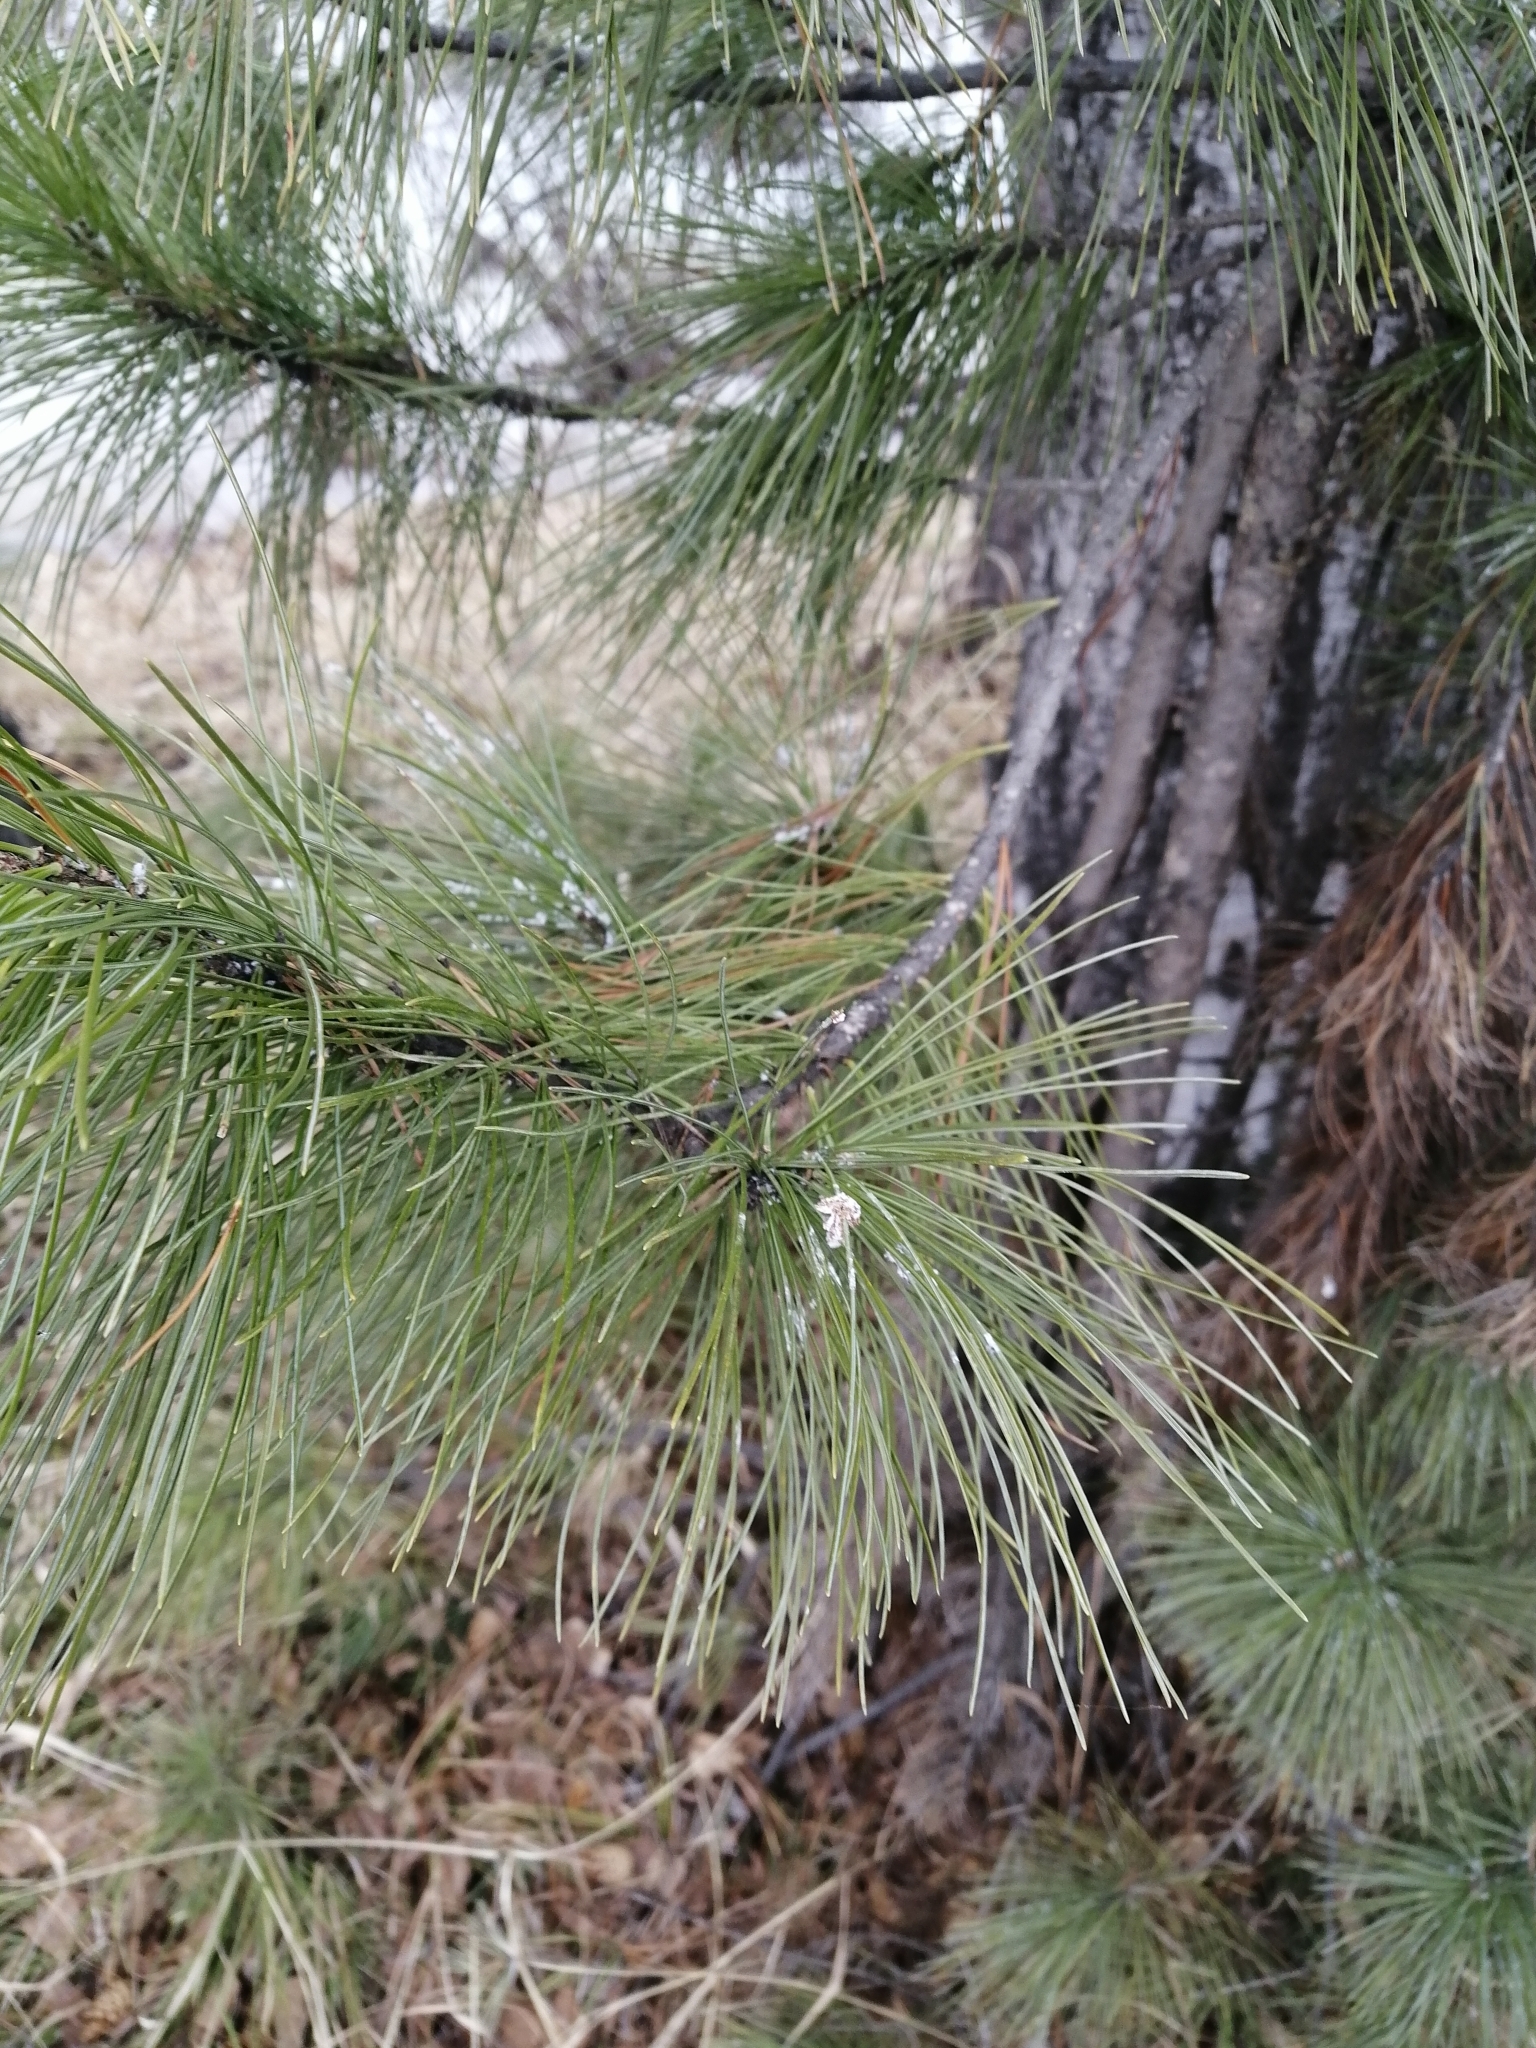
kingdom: Plantae
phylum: Tracheophyta
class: Pinopsida
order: Pinales
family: Pinaceae
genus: Pinus
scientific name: Pinus sibirica
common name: Siberian pine
